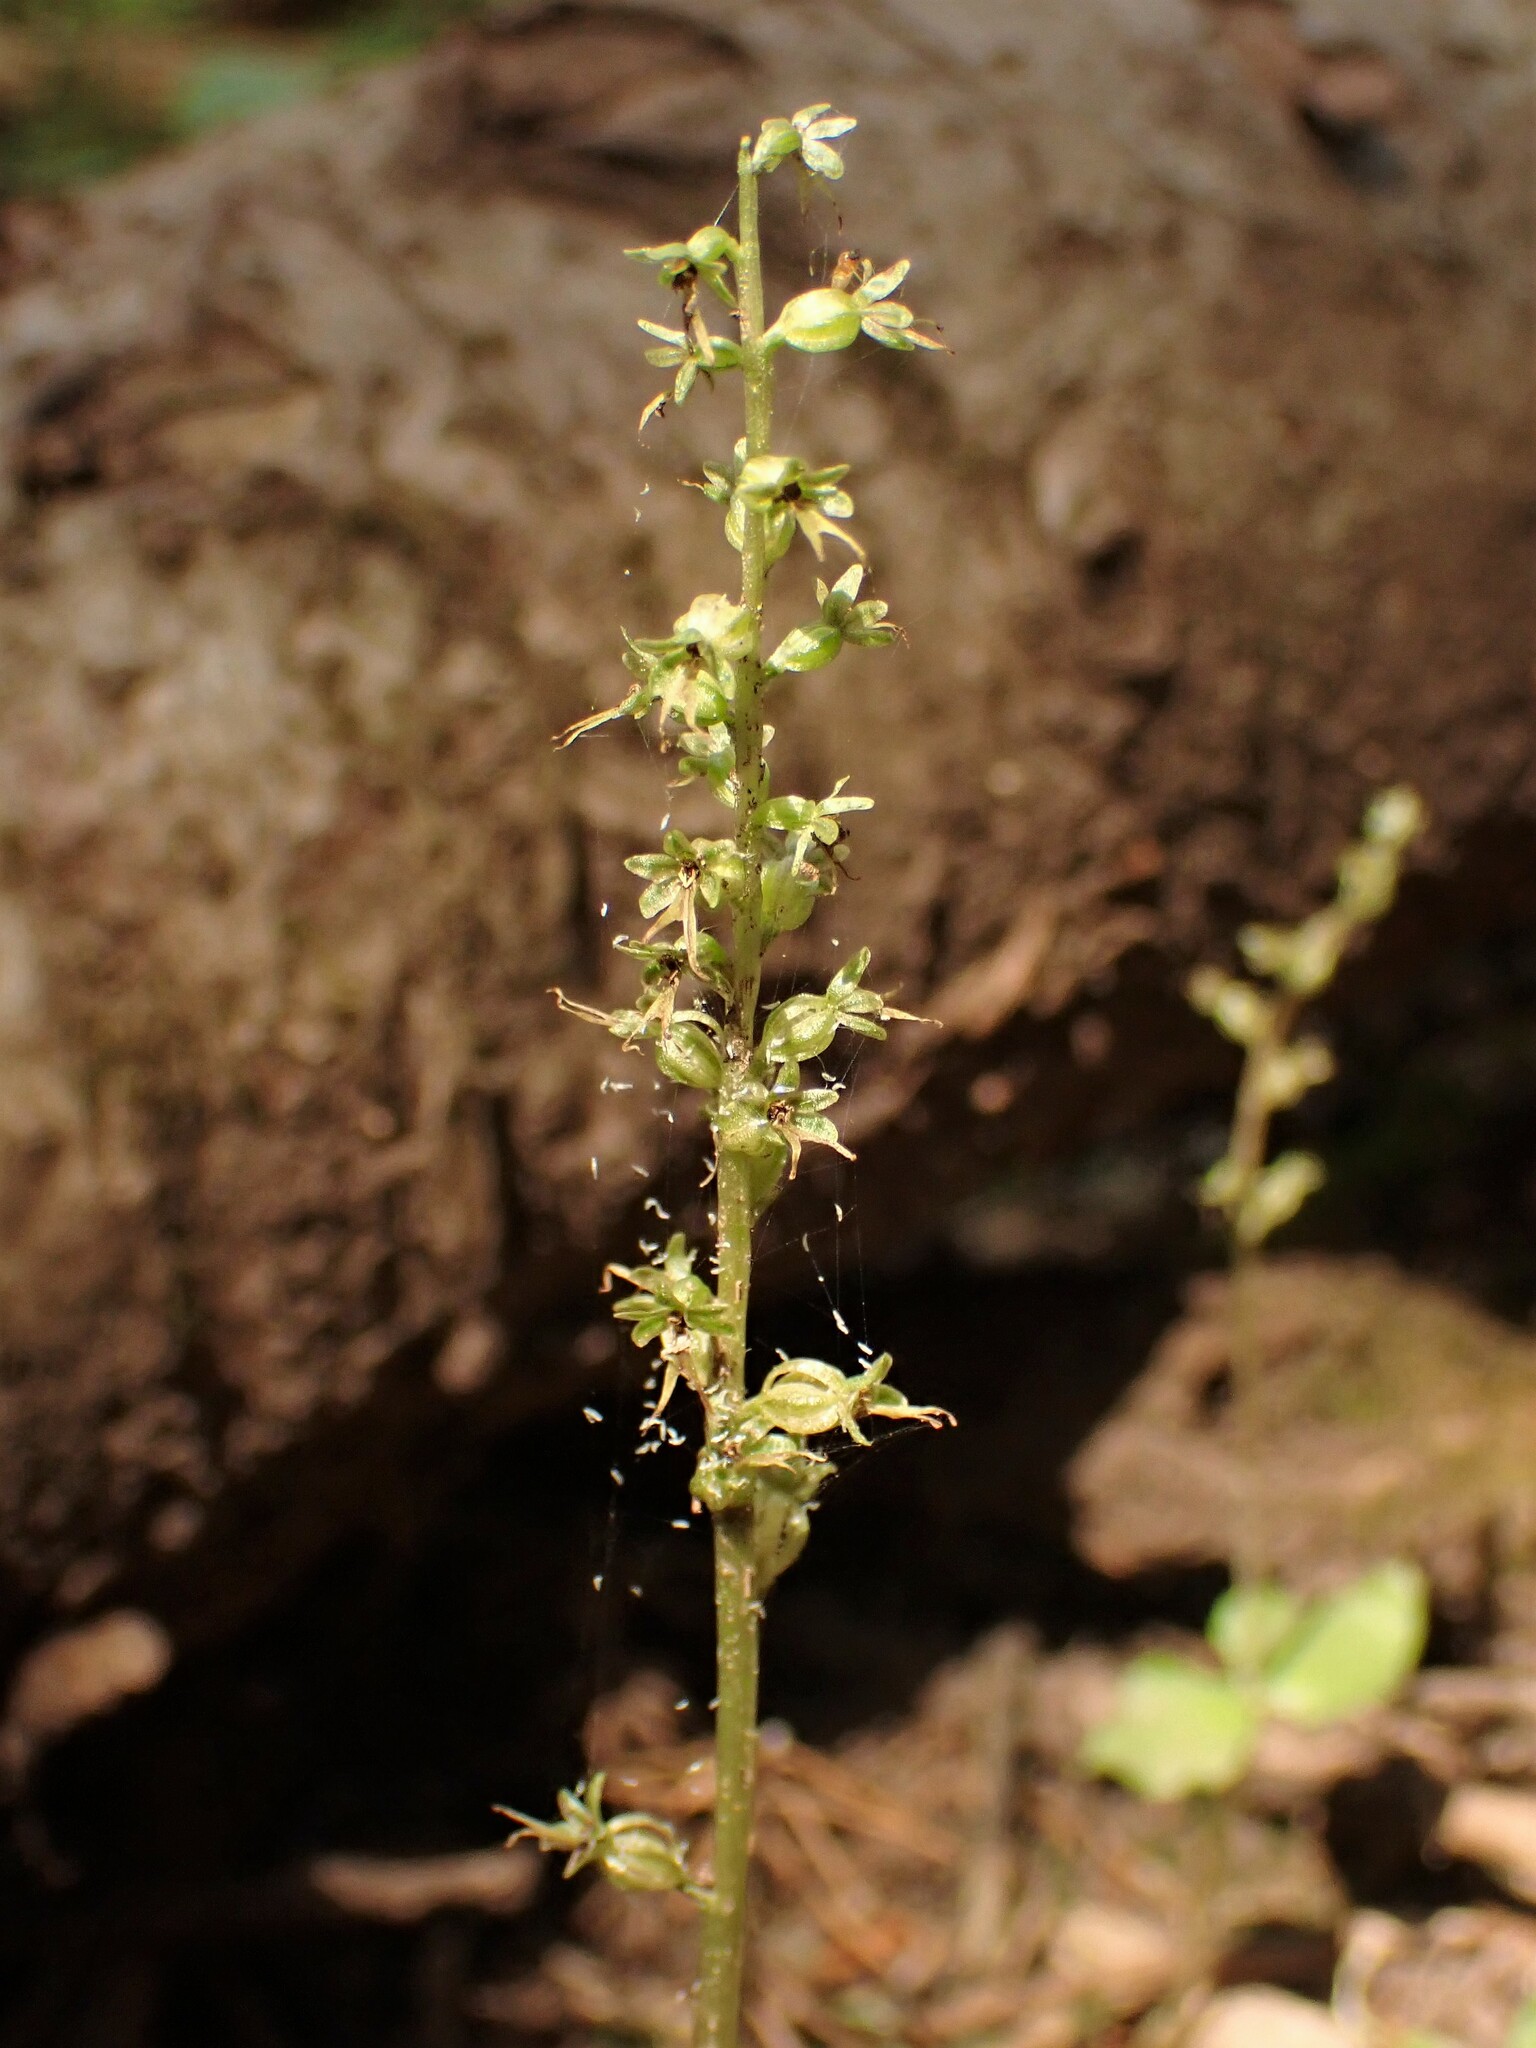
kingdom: Plantae
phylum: Tracheophyta
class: Liliopsida
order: Asparagales
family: Orchidaceae
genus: Neottia
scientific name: Neottia cordata
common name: Lesser twayblade
